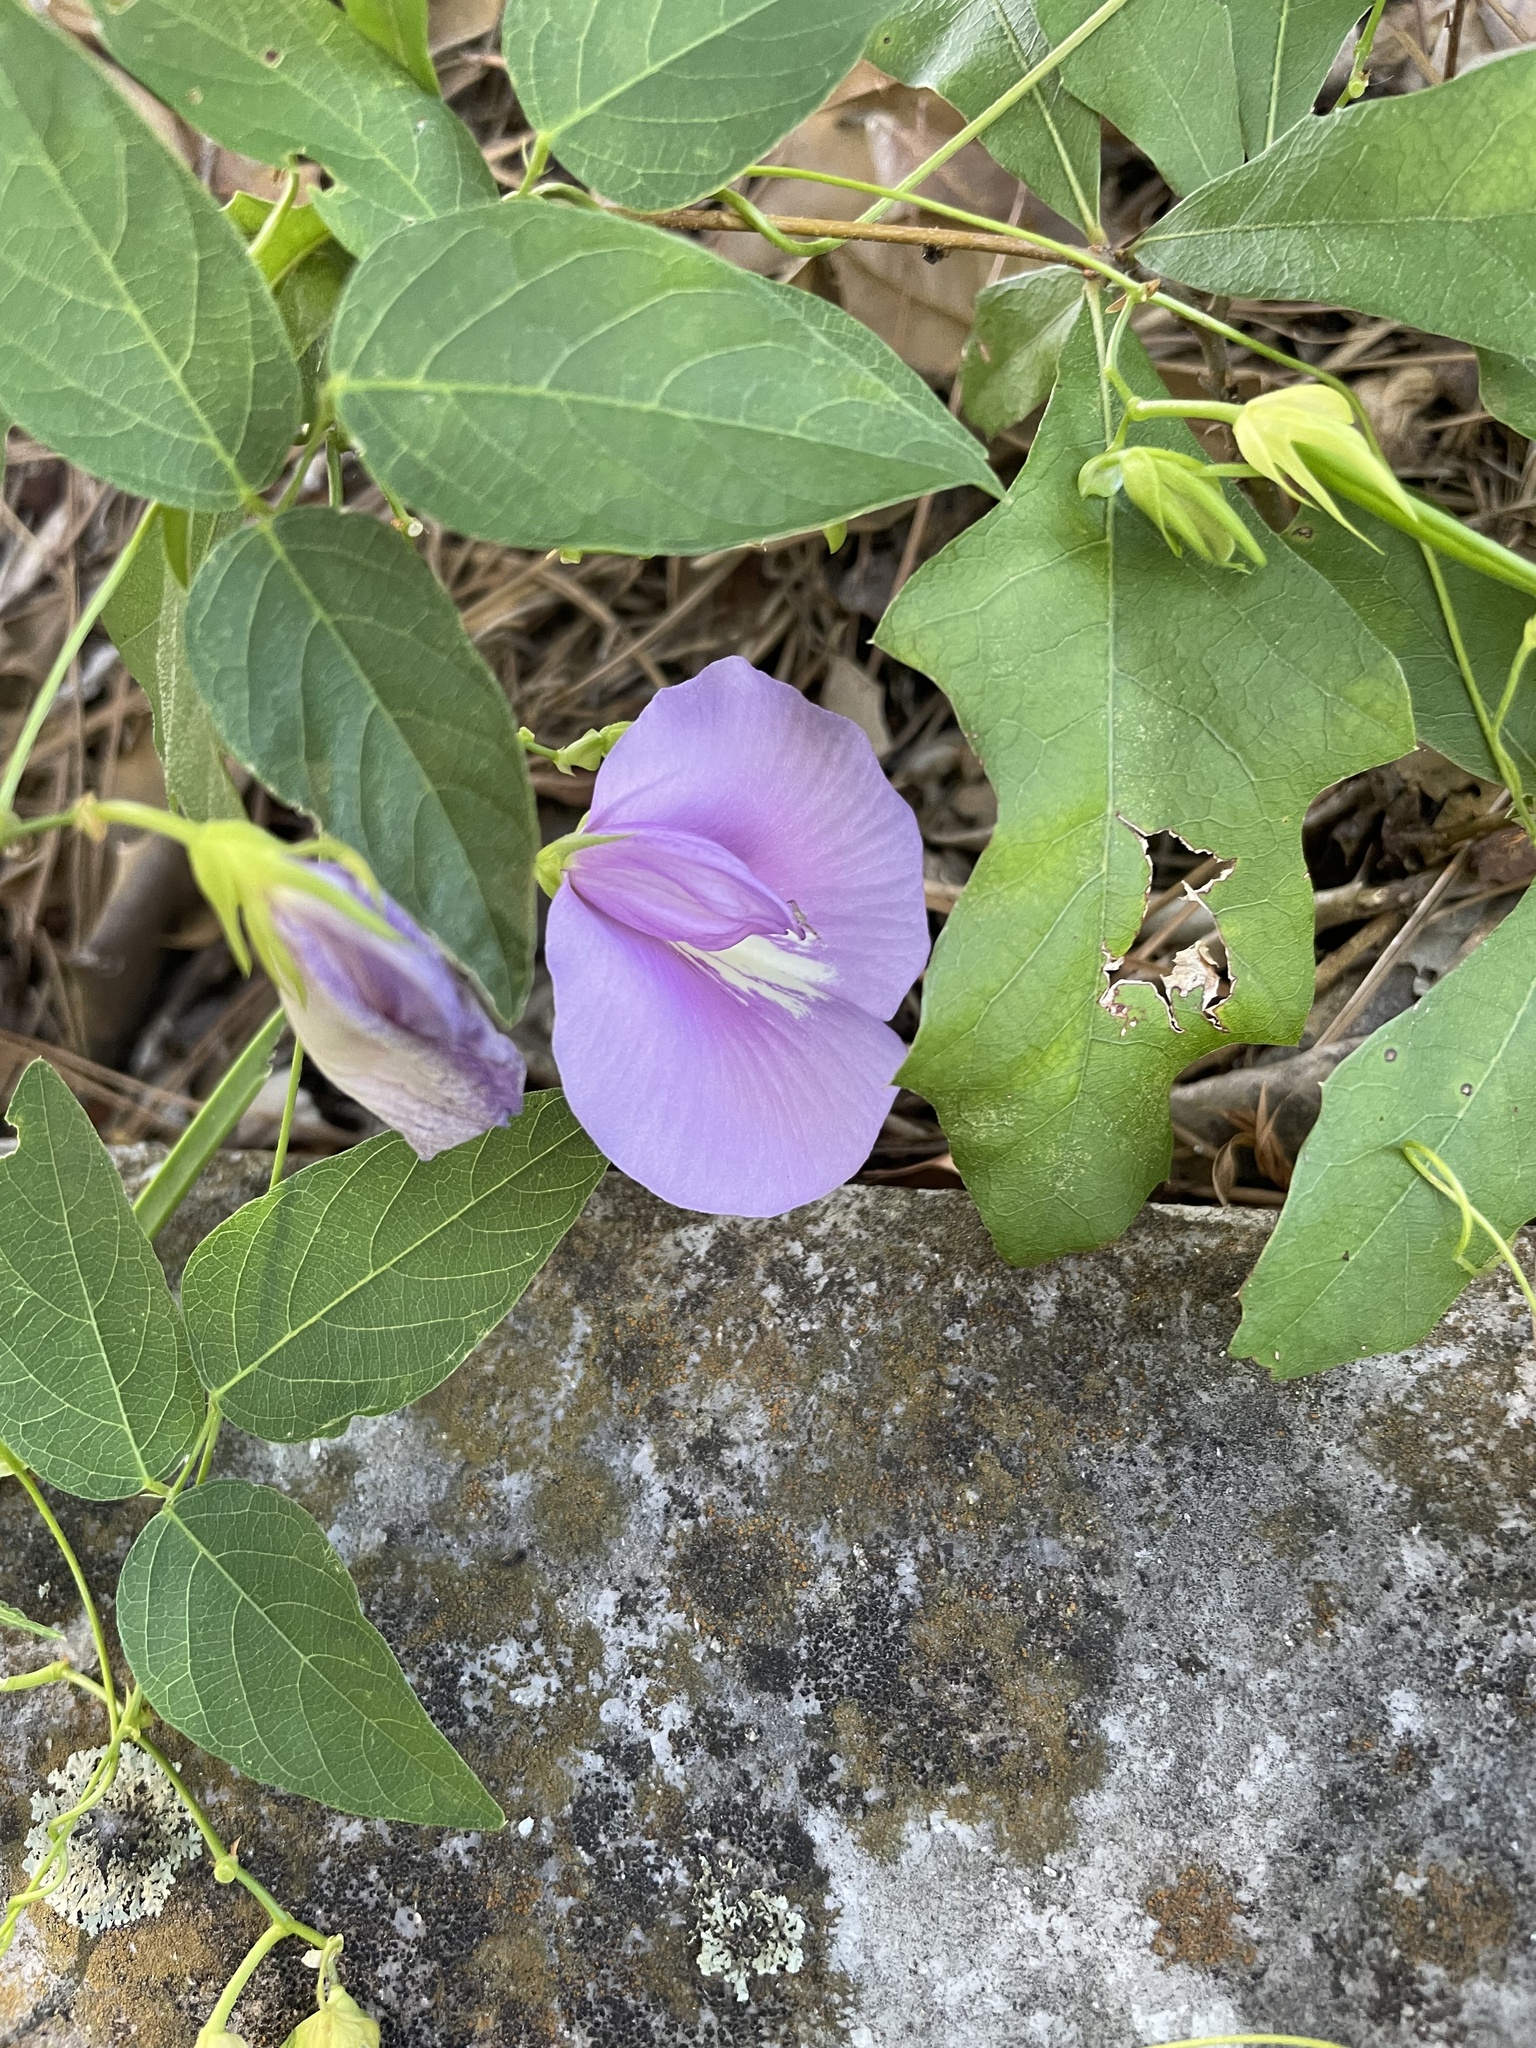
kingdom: Plantae
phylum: Tracheophyta
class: Magnoliopsida
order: Fabales
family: Fabaceae
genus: Centrosema
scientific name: Centrosema virginianum
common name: Butterfly-pea
